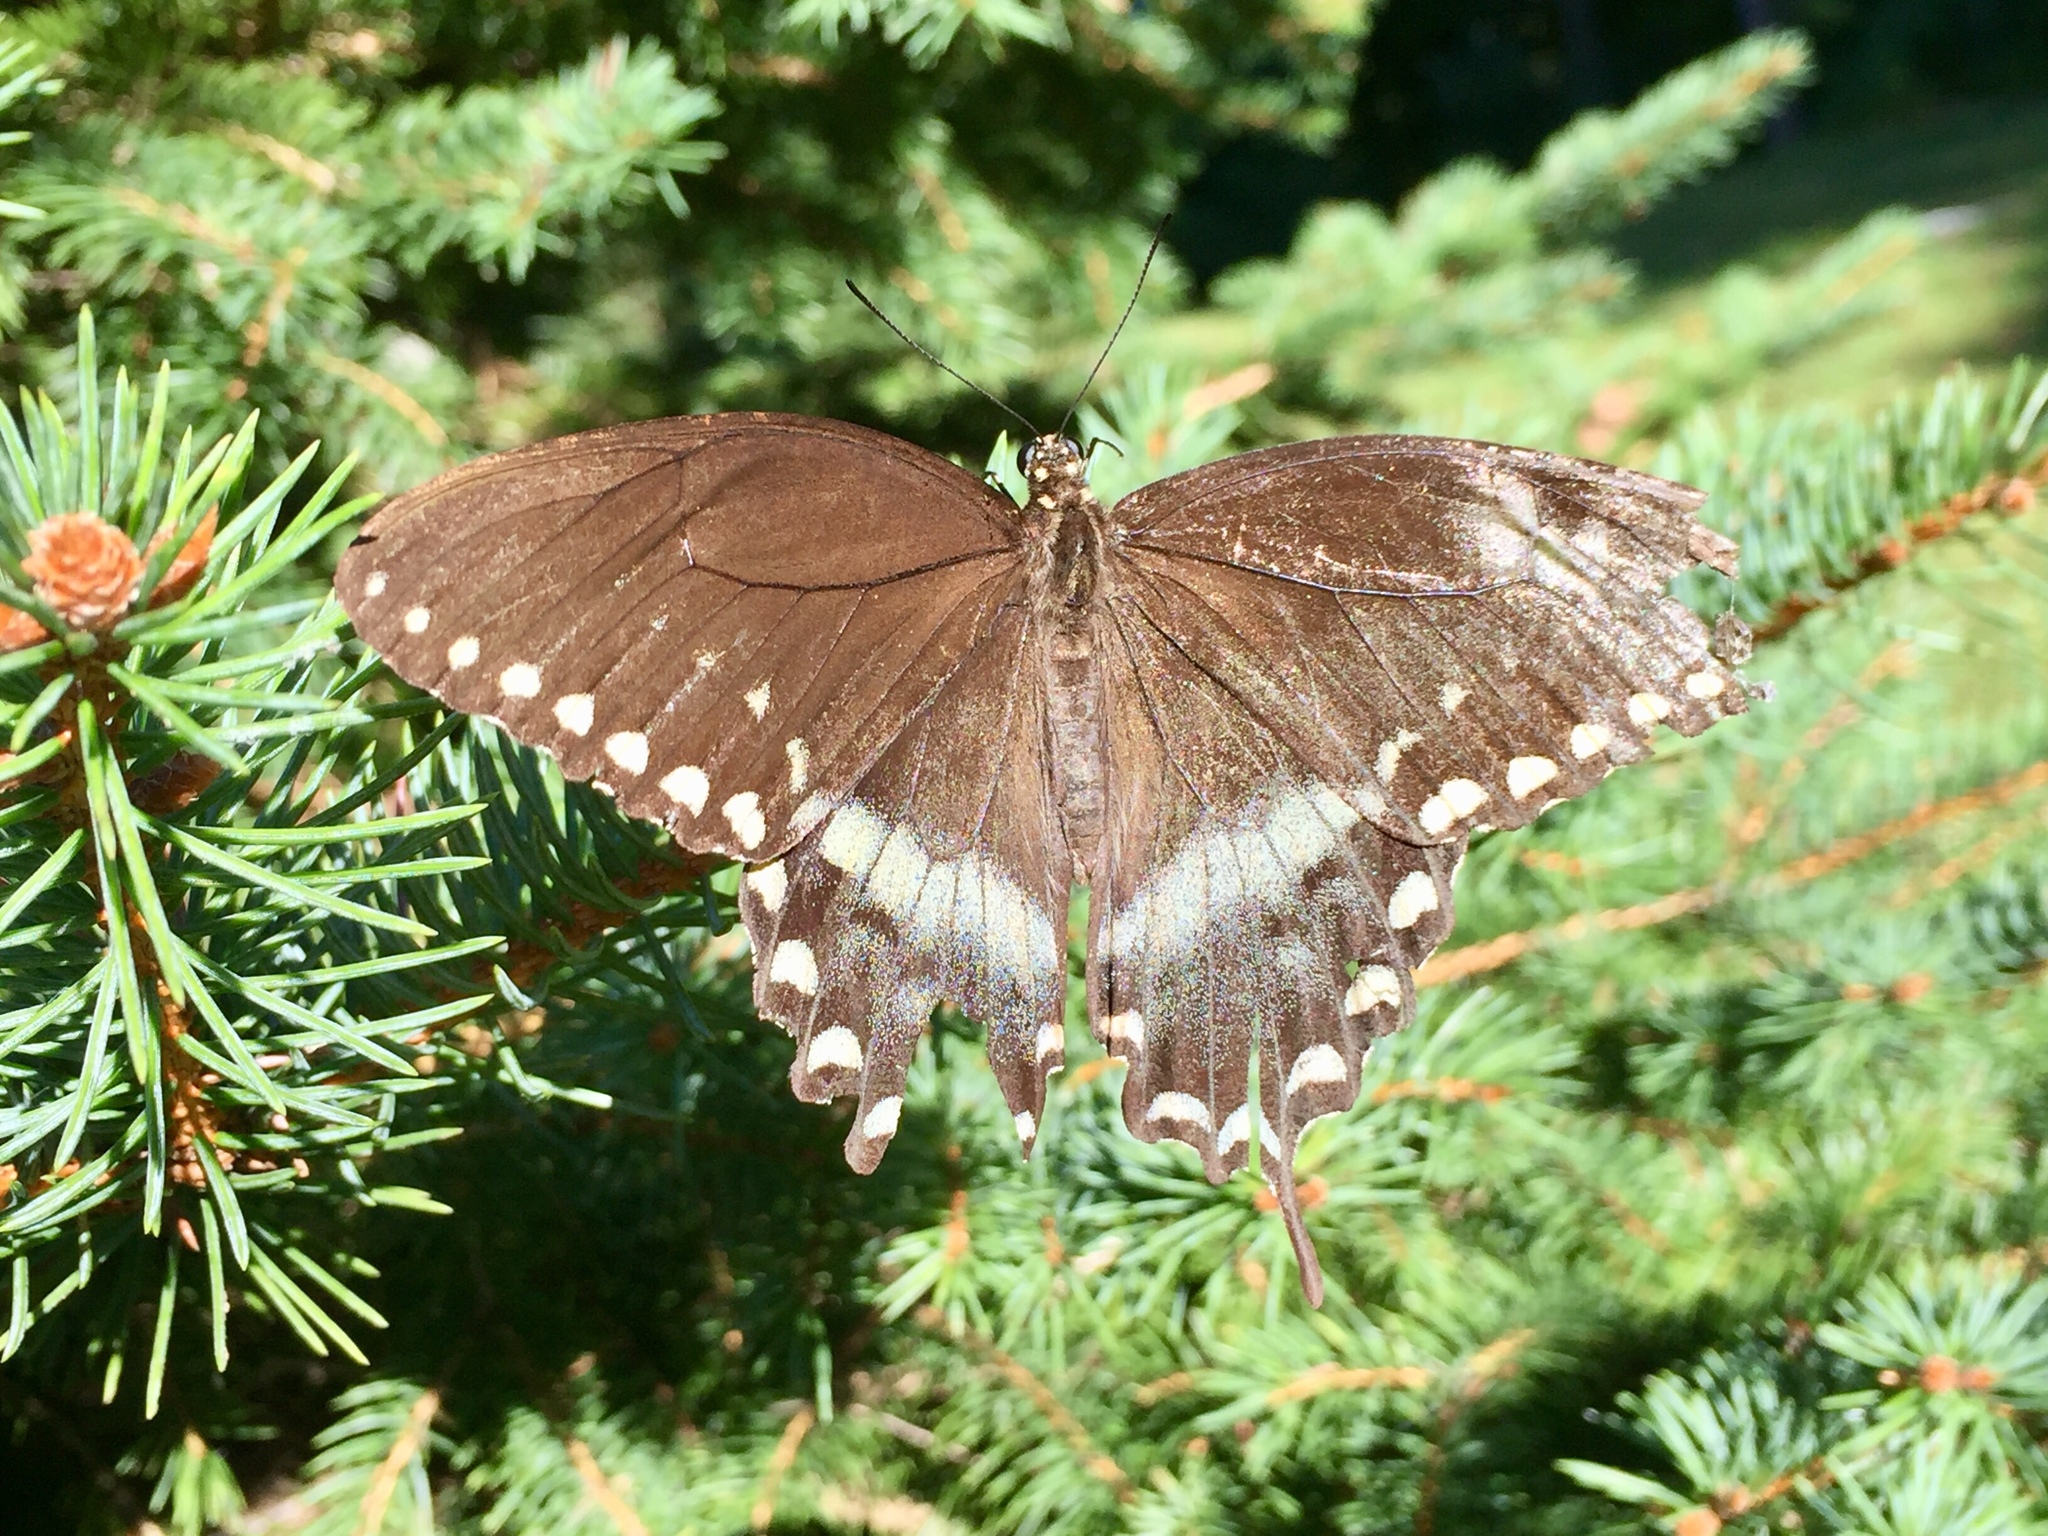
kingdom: Animalia
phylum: Arthropoda
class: Insecta
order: Lepidoptera
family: Papilionidae
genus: Papilio
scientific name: Papilio troilus
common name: Spicebush swallowtail
